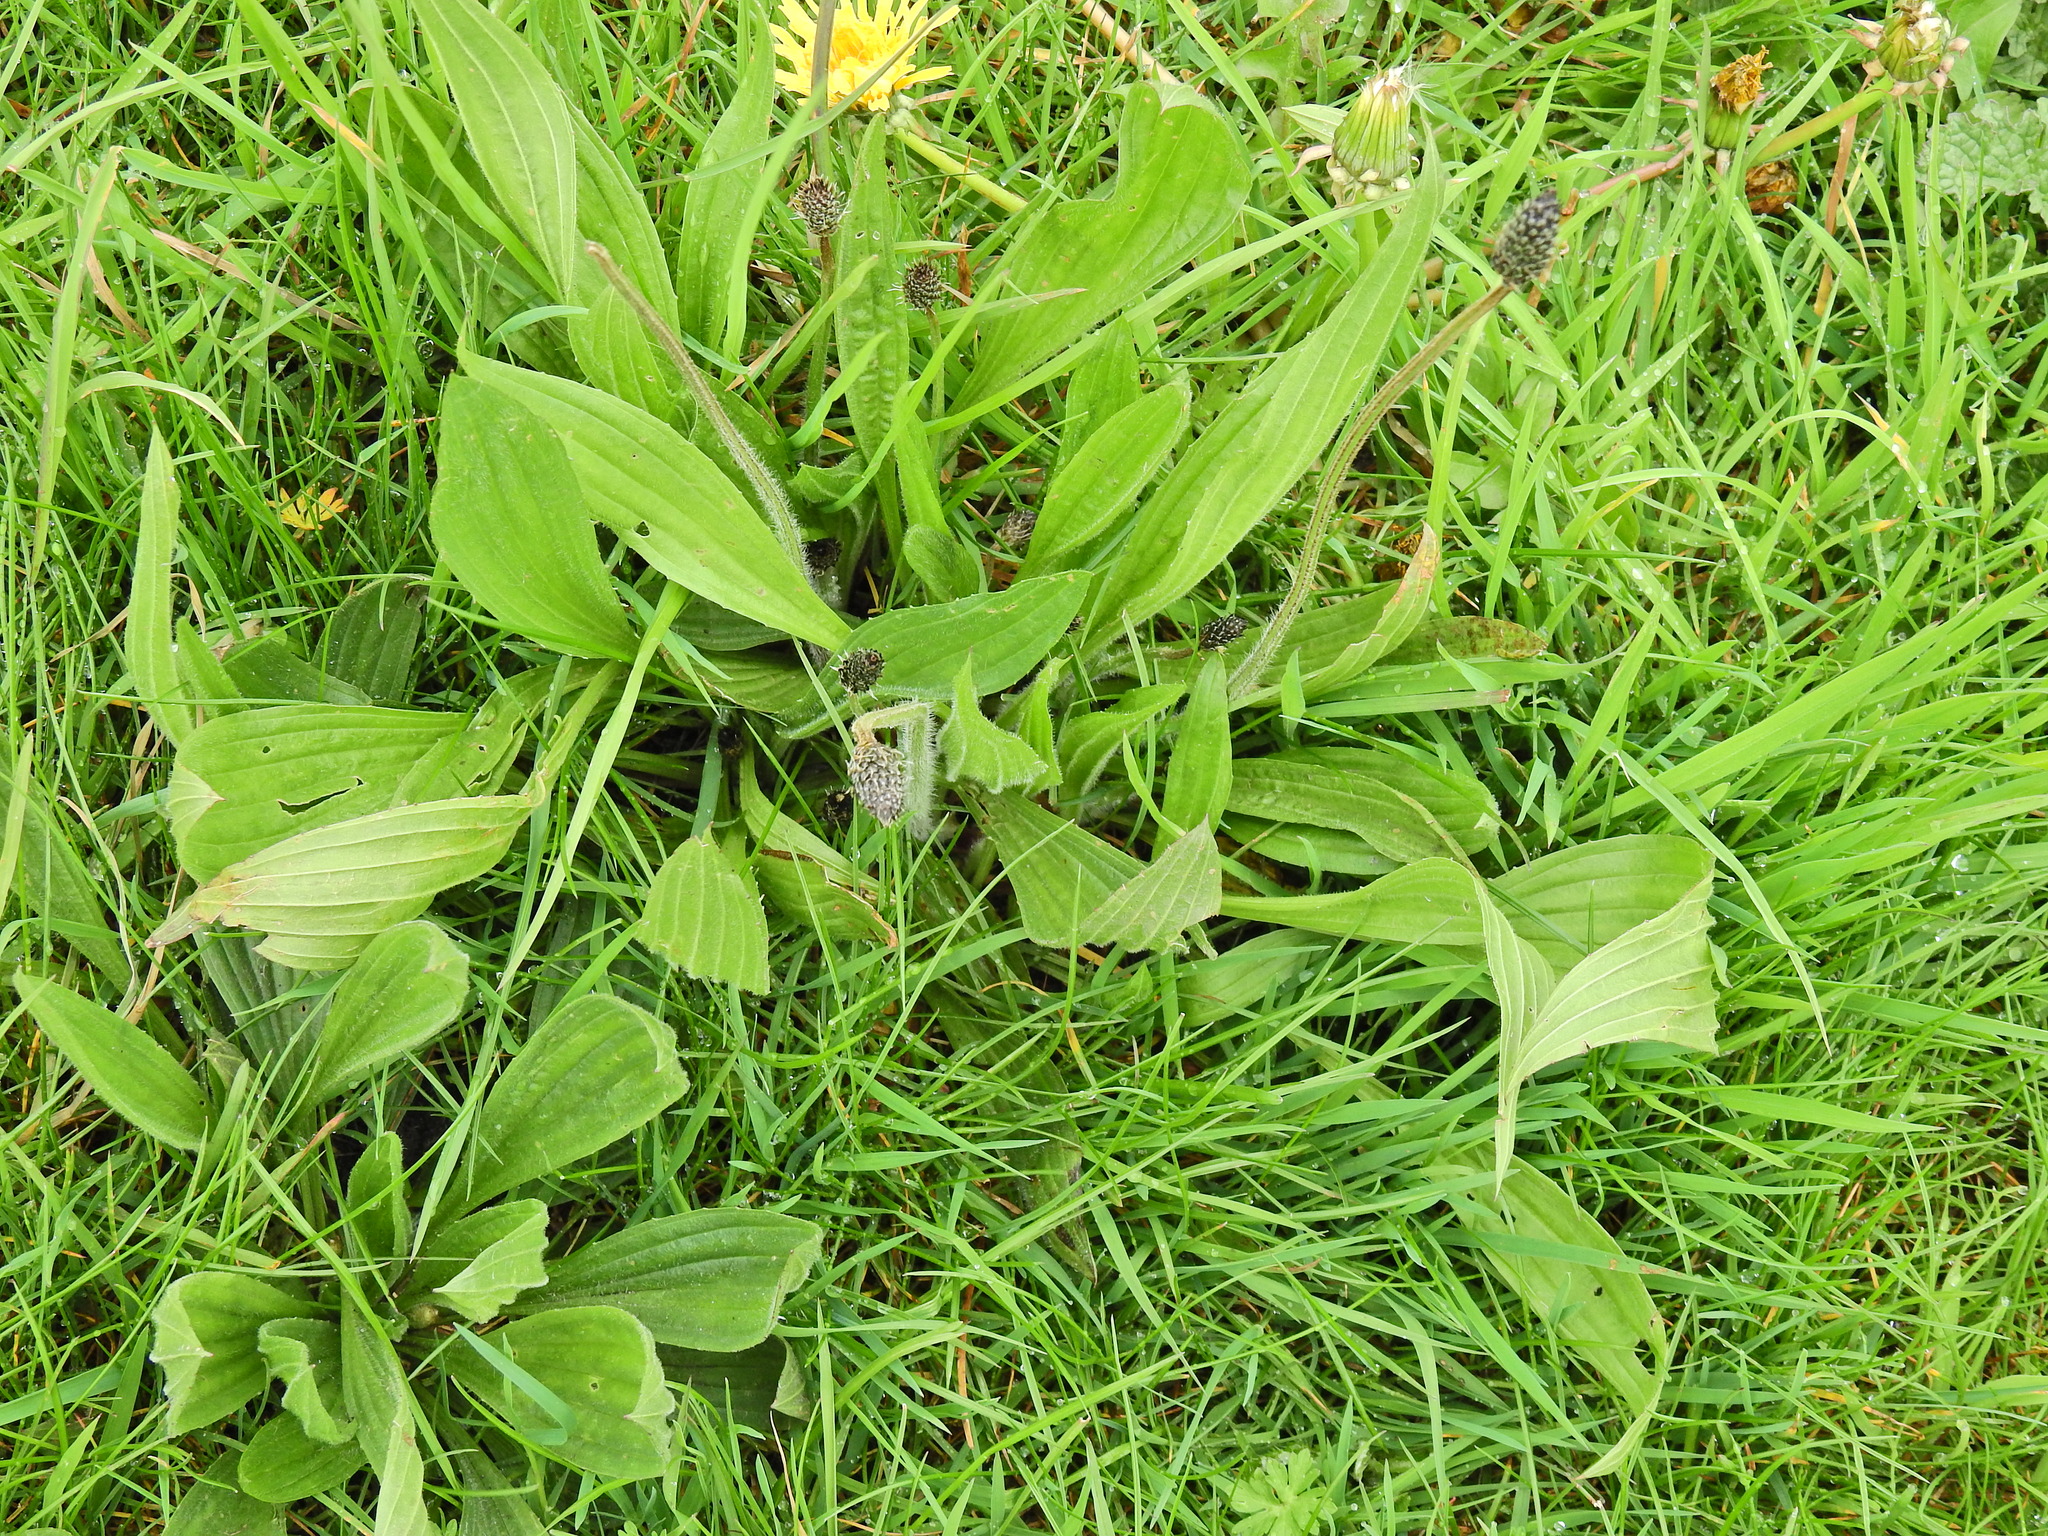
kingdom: Plantae
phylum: Tracheophyta
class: Magnoliopsida
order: Lamiales
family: Plantaginaceae
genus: Plantago
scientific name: Plantago lanceolata
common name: Ribwort plantain
